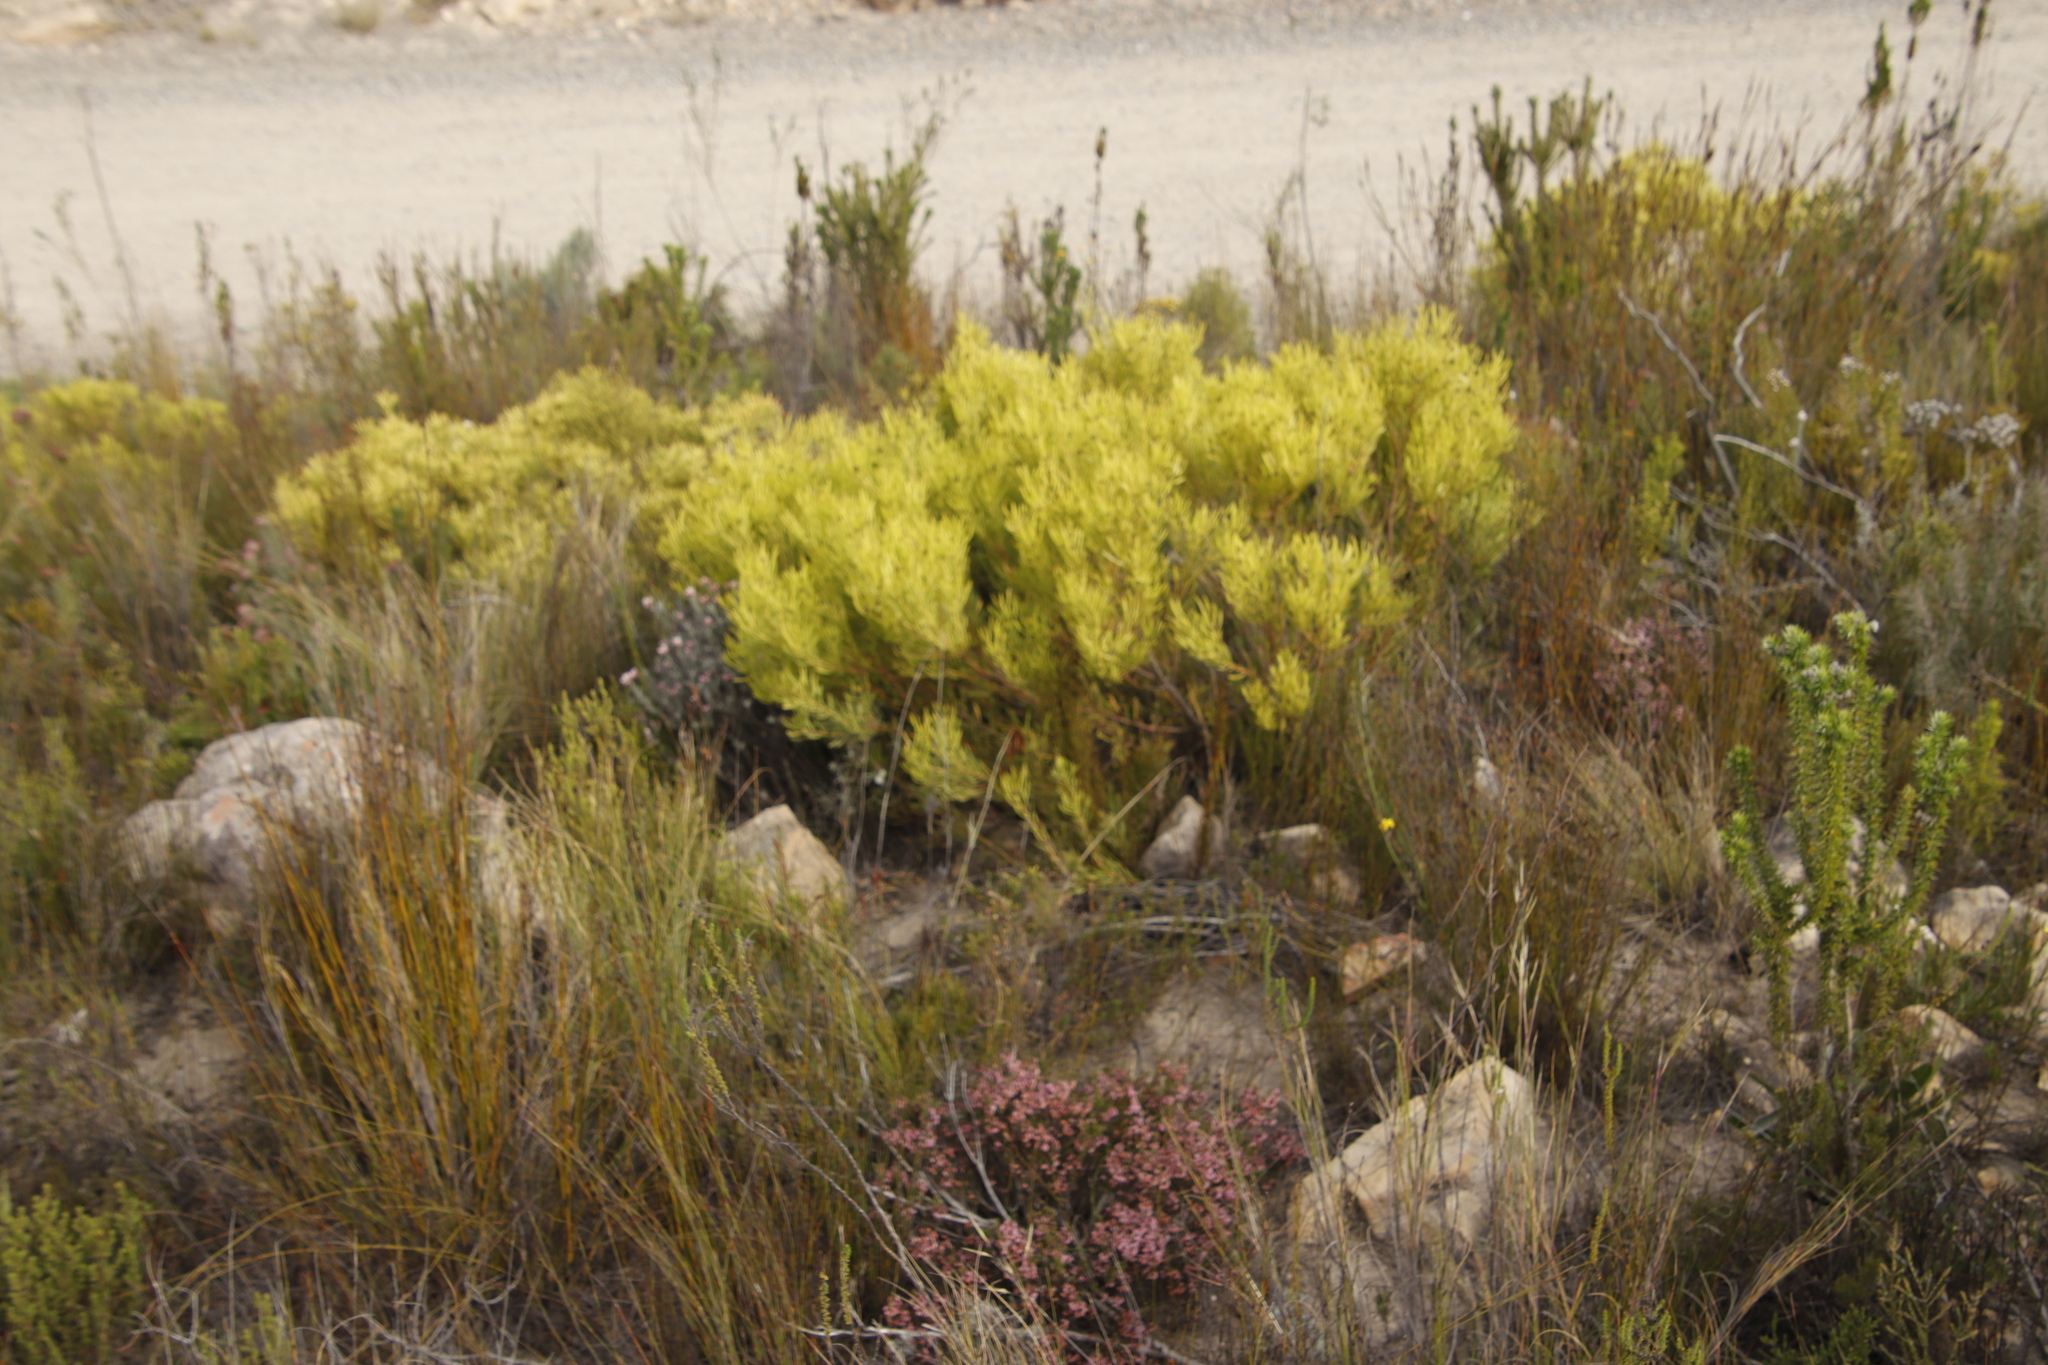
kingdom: Plantae
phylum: Tracheophyta
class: Magnoliopsida
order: Proteales
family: Proteaceae
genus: Leucadendron
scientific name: Leucadendron salignum
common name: Common sunshine conebush
